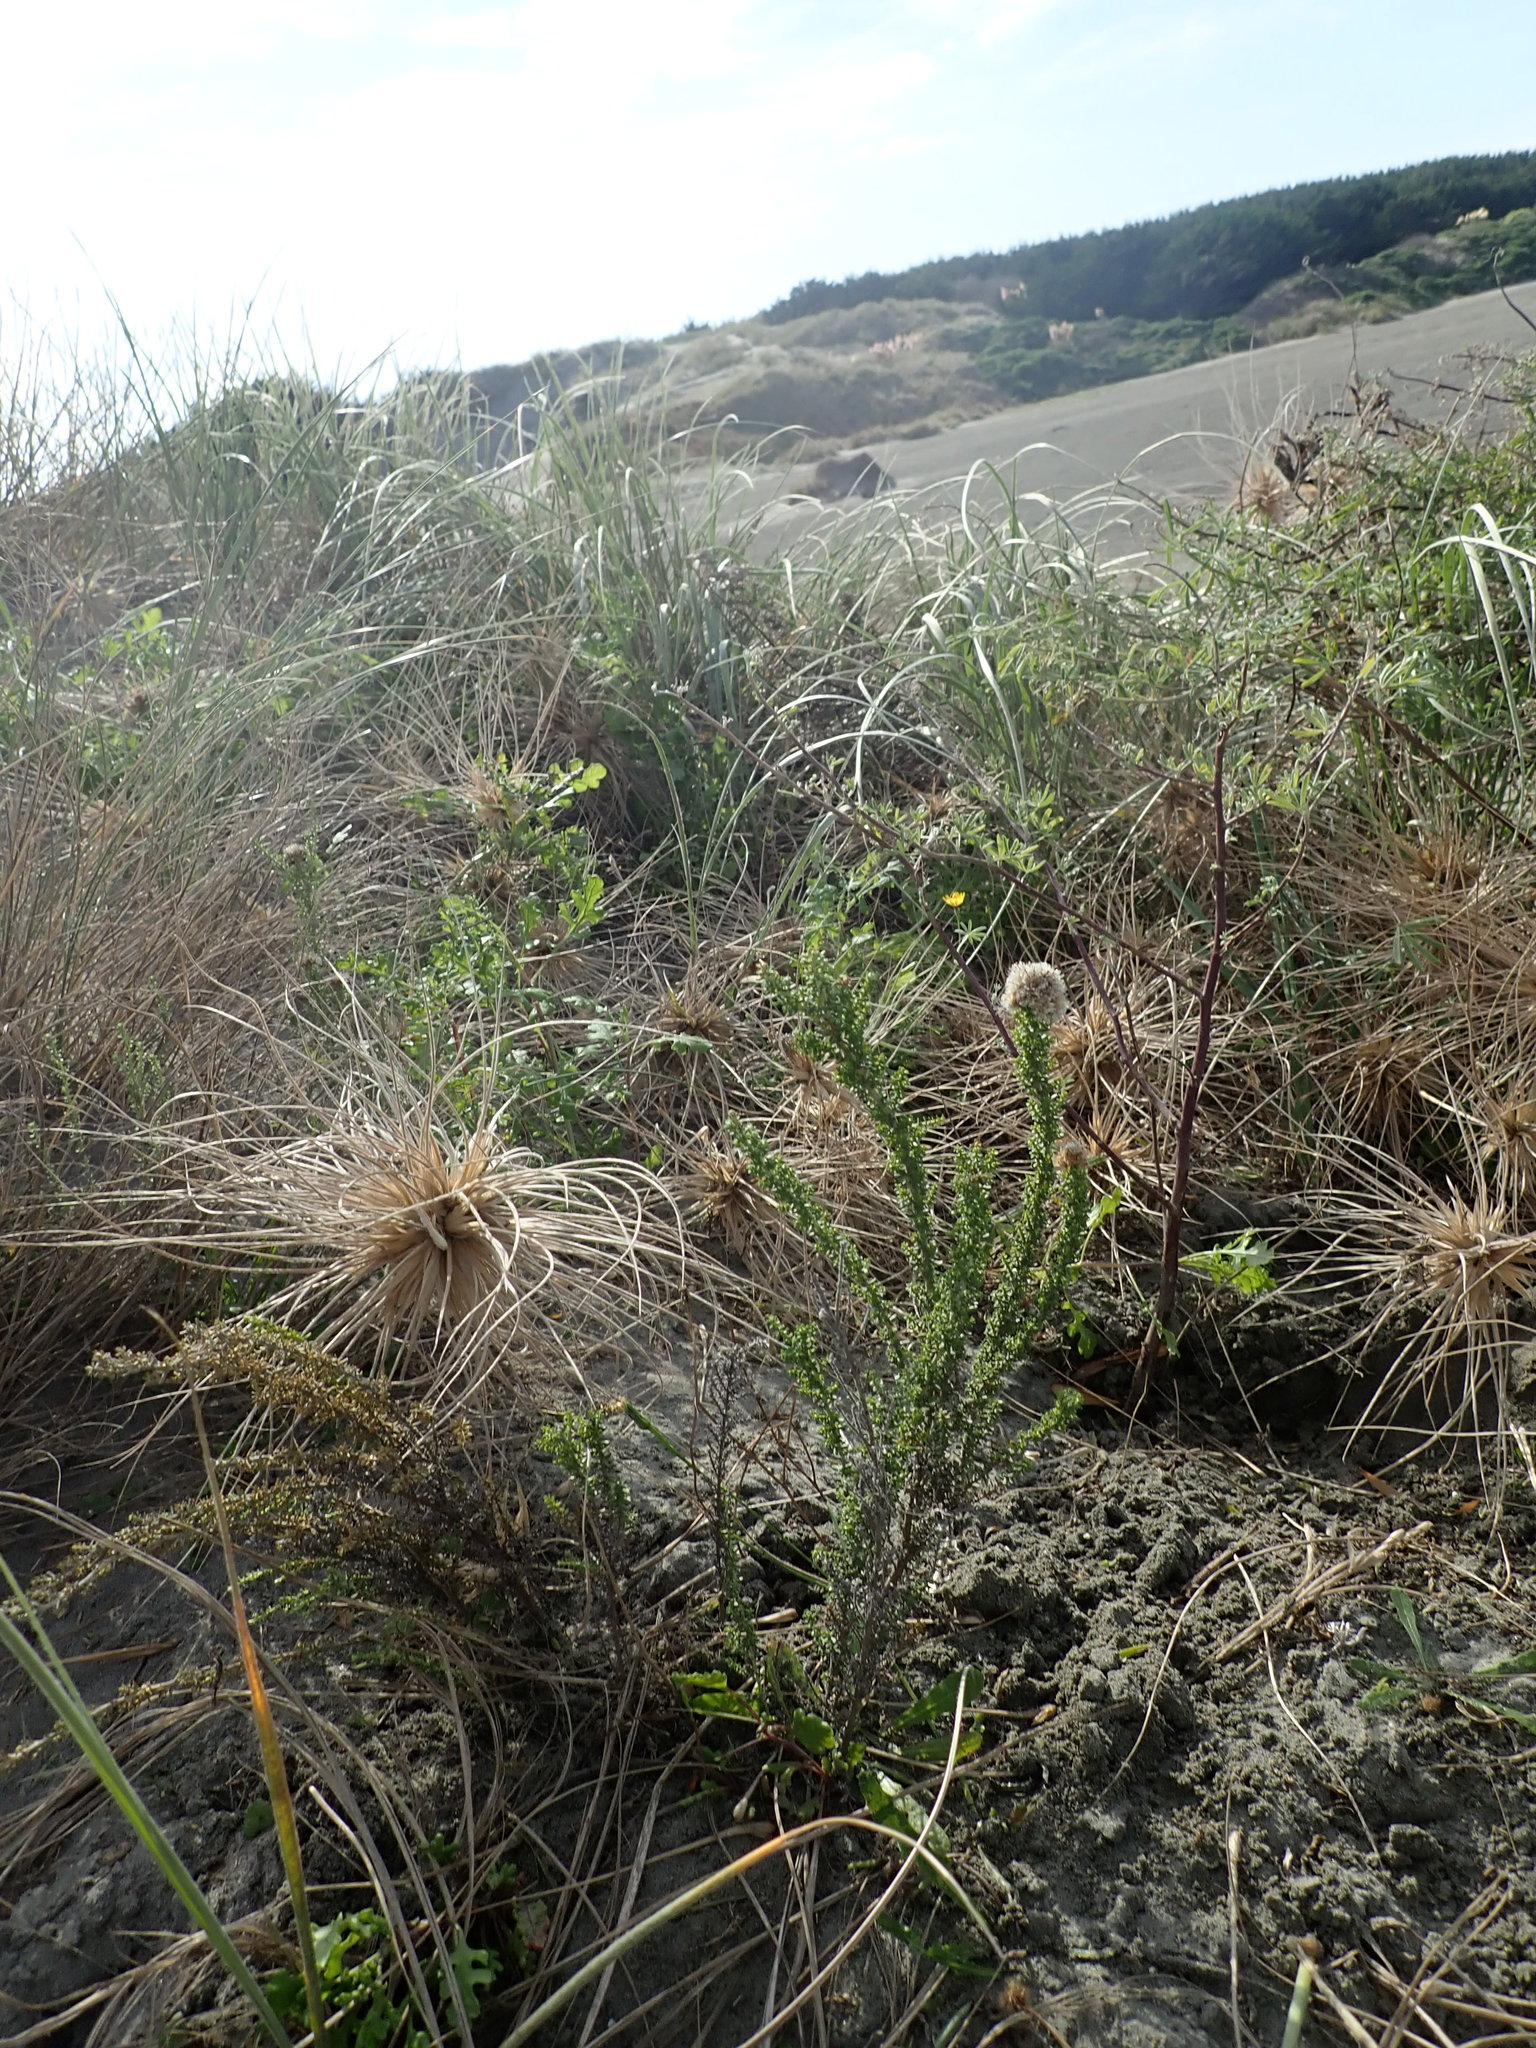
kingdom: Plantae
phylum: Tracheophyta
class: Magnoliopsida
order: Asterales
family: Asteraceae
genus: Ozothamnus
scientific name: Ozothamnus leptophyllus
